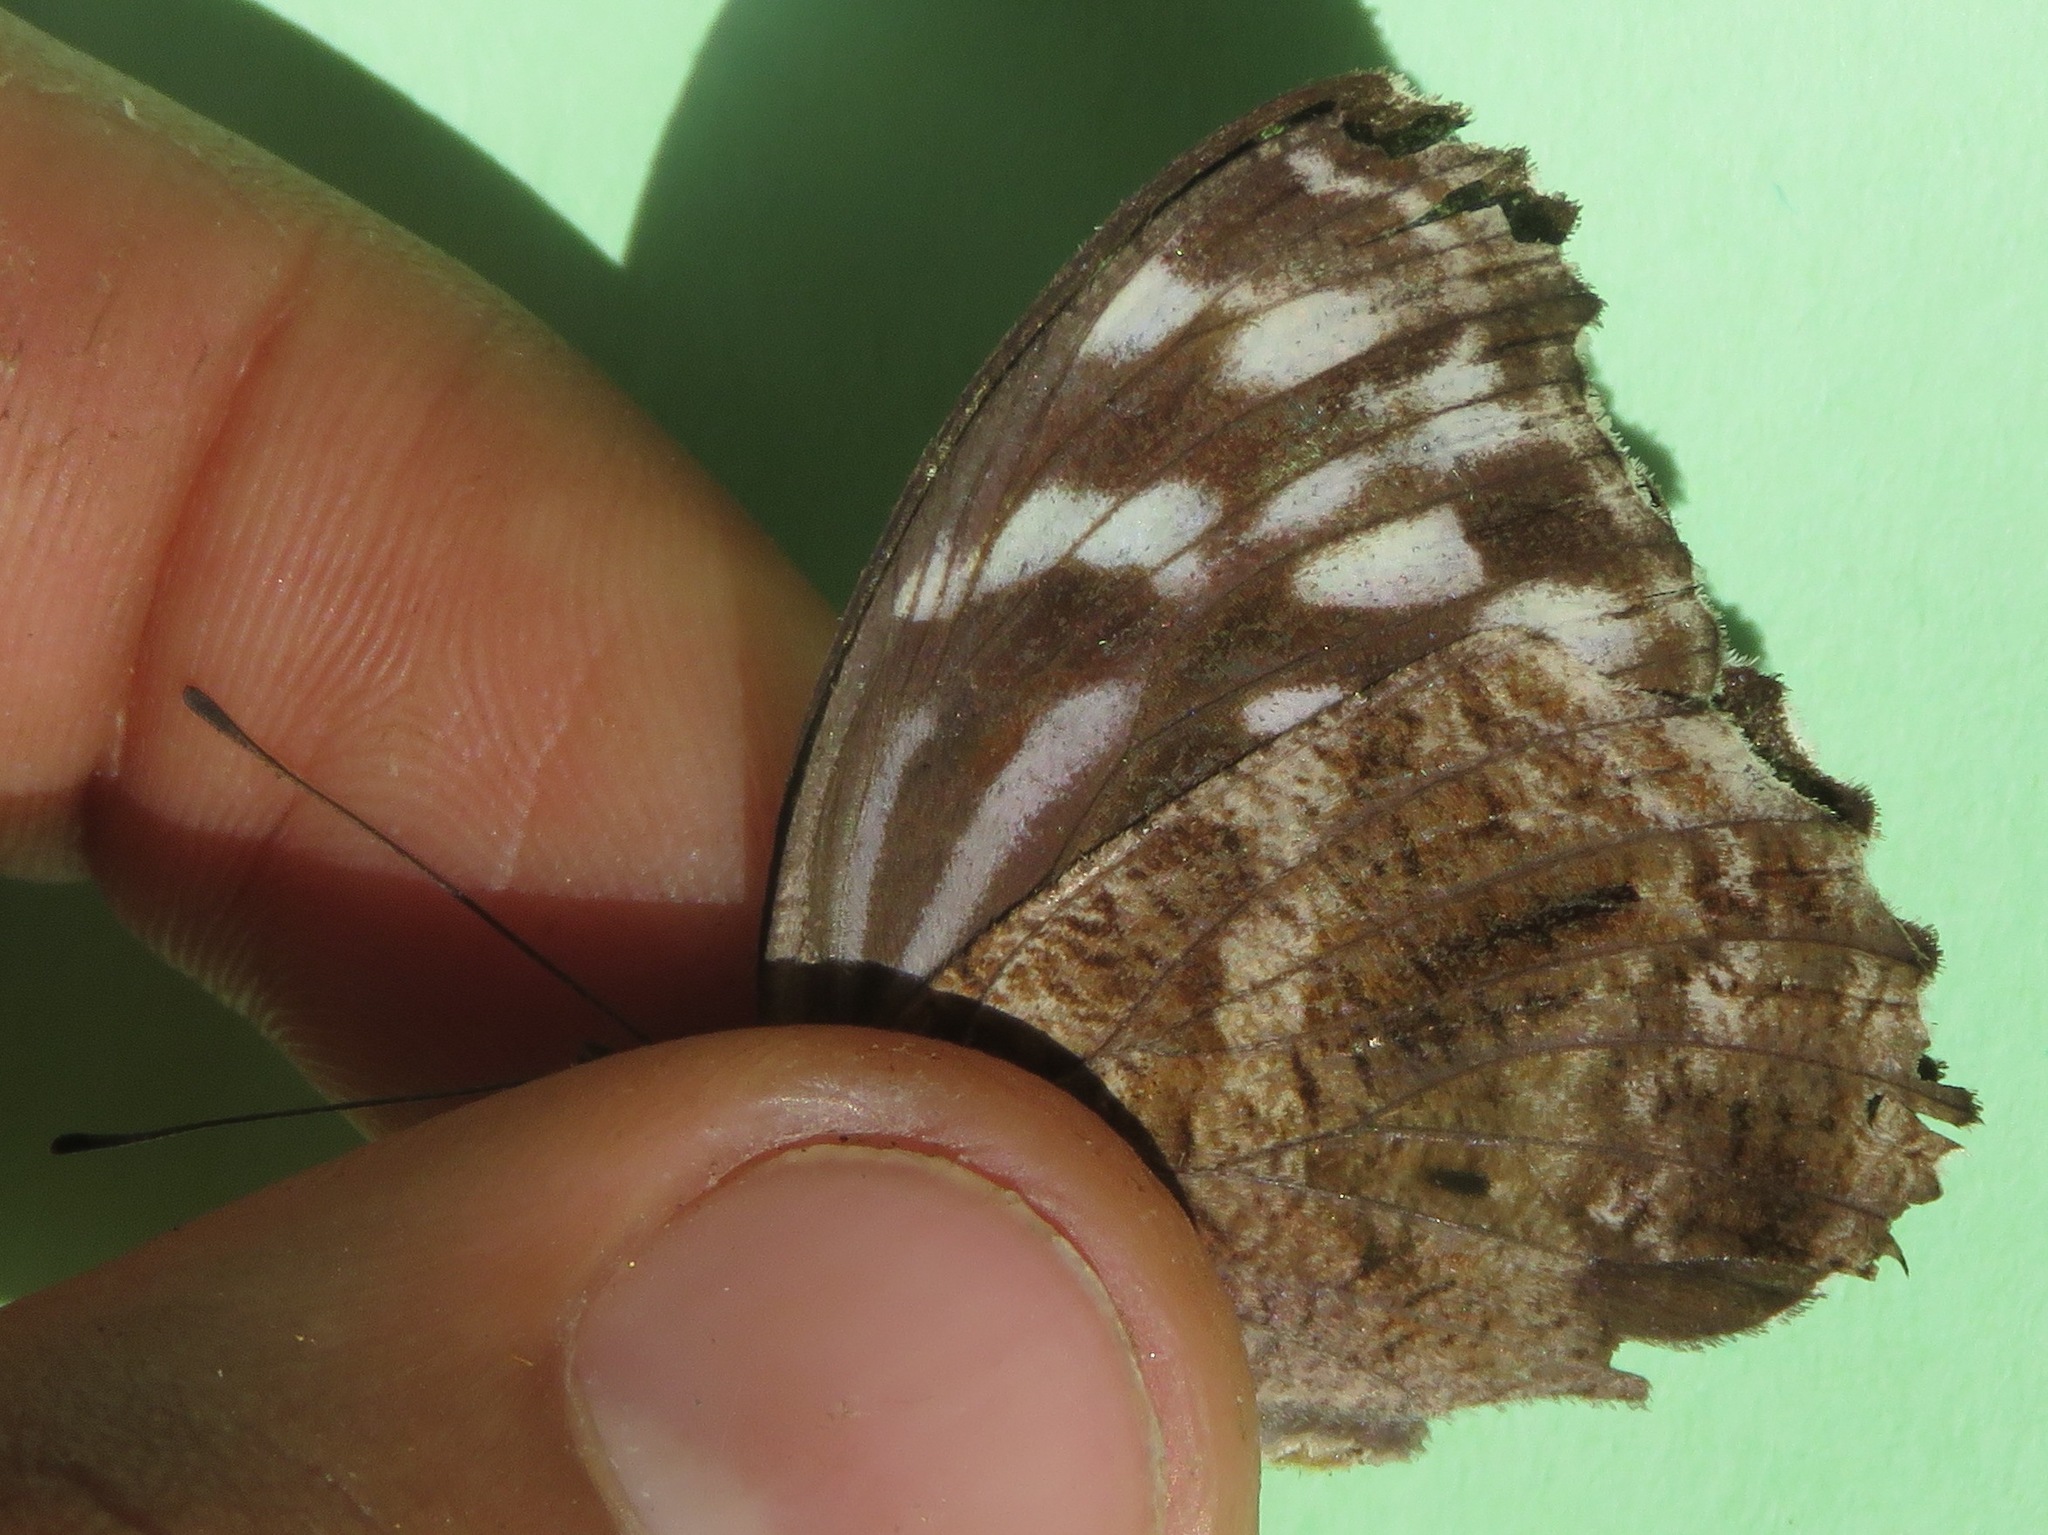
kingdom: Animalia
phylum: Arthropoda
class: Insecta
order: Lepidoptera
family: Nymphalidae
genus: Myscelia
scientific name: Myscelia ethusa
